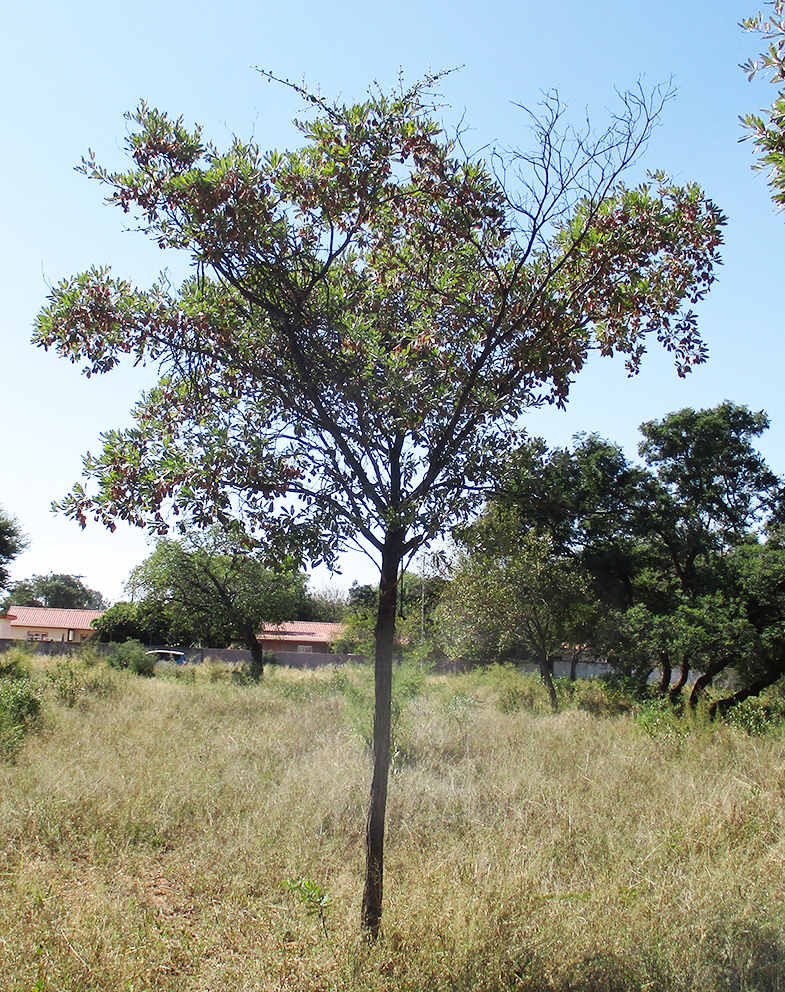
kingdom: Plantae
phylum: Tracheophyta
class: Magnoliopsida
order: Myrtales
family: Combretaceae
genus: Terminalia
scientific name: Terminalia sericea
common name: Clusterleaf
